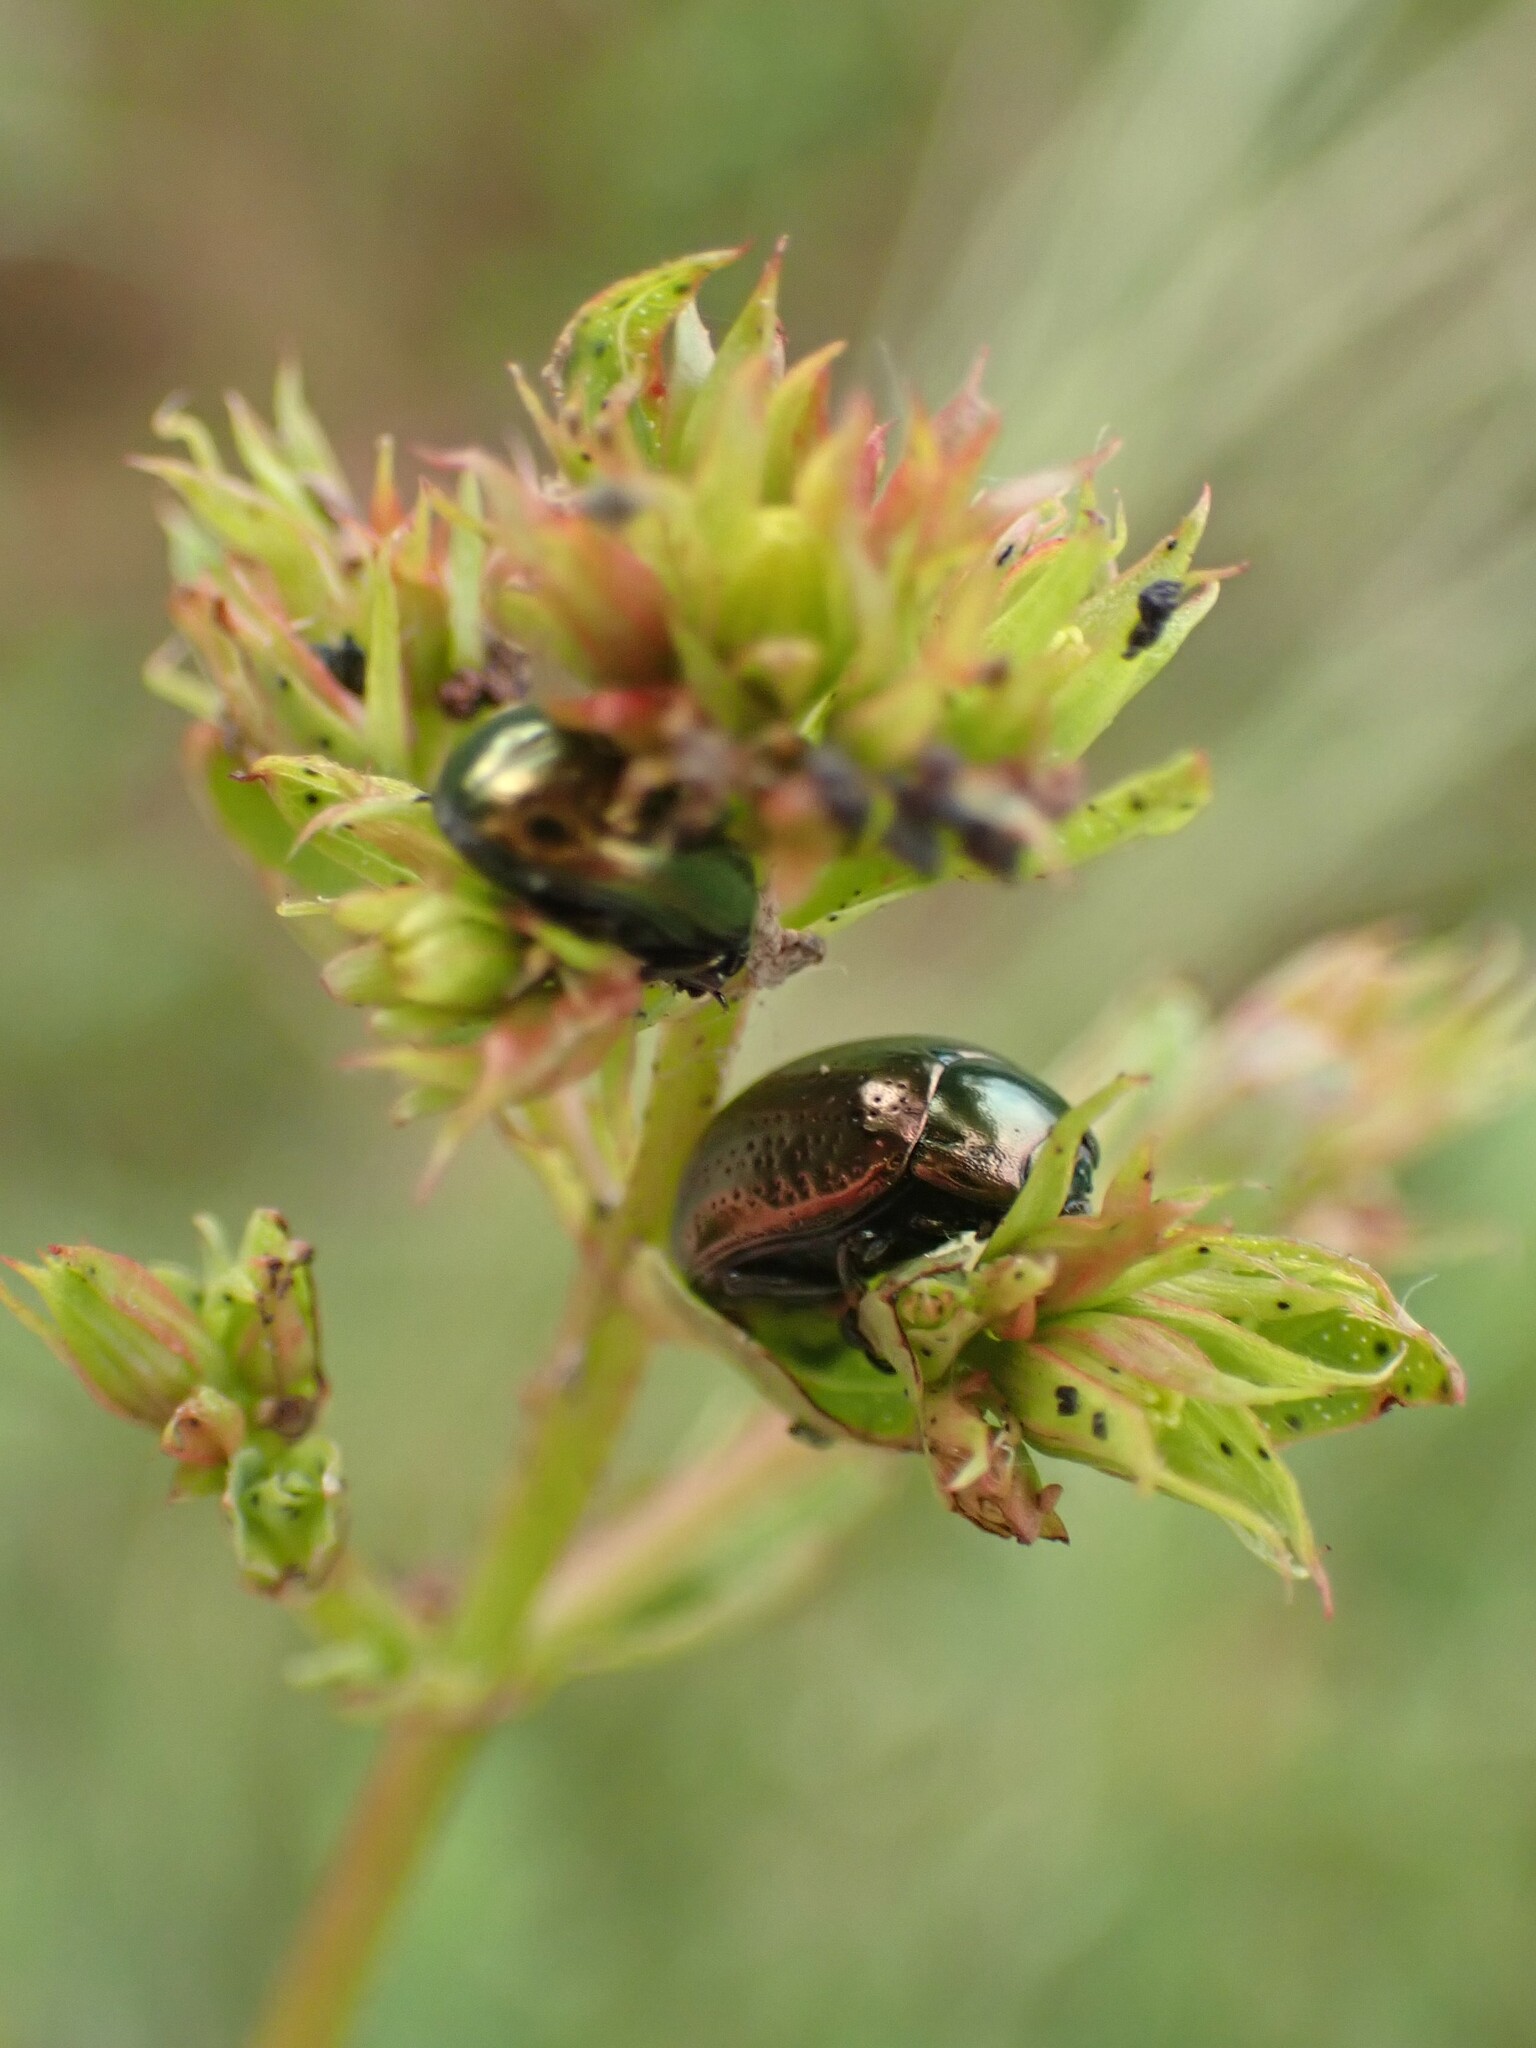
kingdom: Animalia
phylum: Arthropoda
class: Insecta
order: Coleoptera
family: Chrysomelidae
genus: Chrysolina
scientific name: Chrysolina hyperici
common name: St. johnswort beetle
